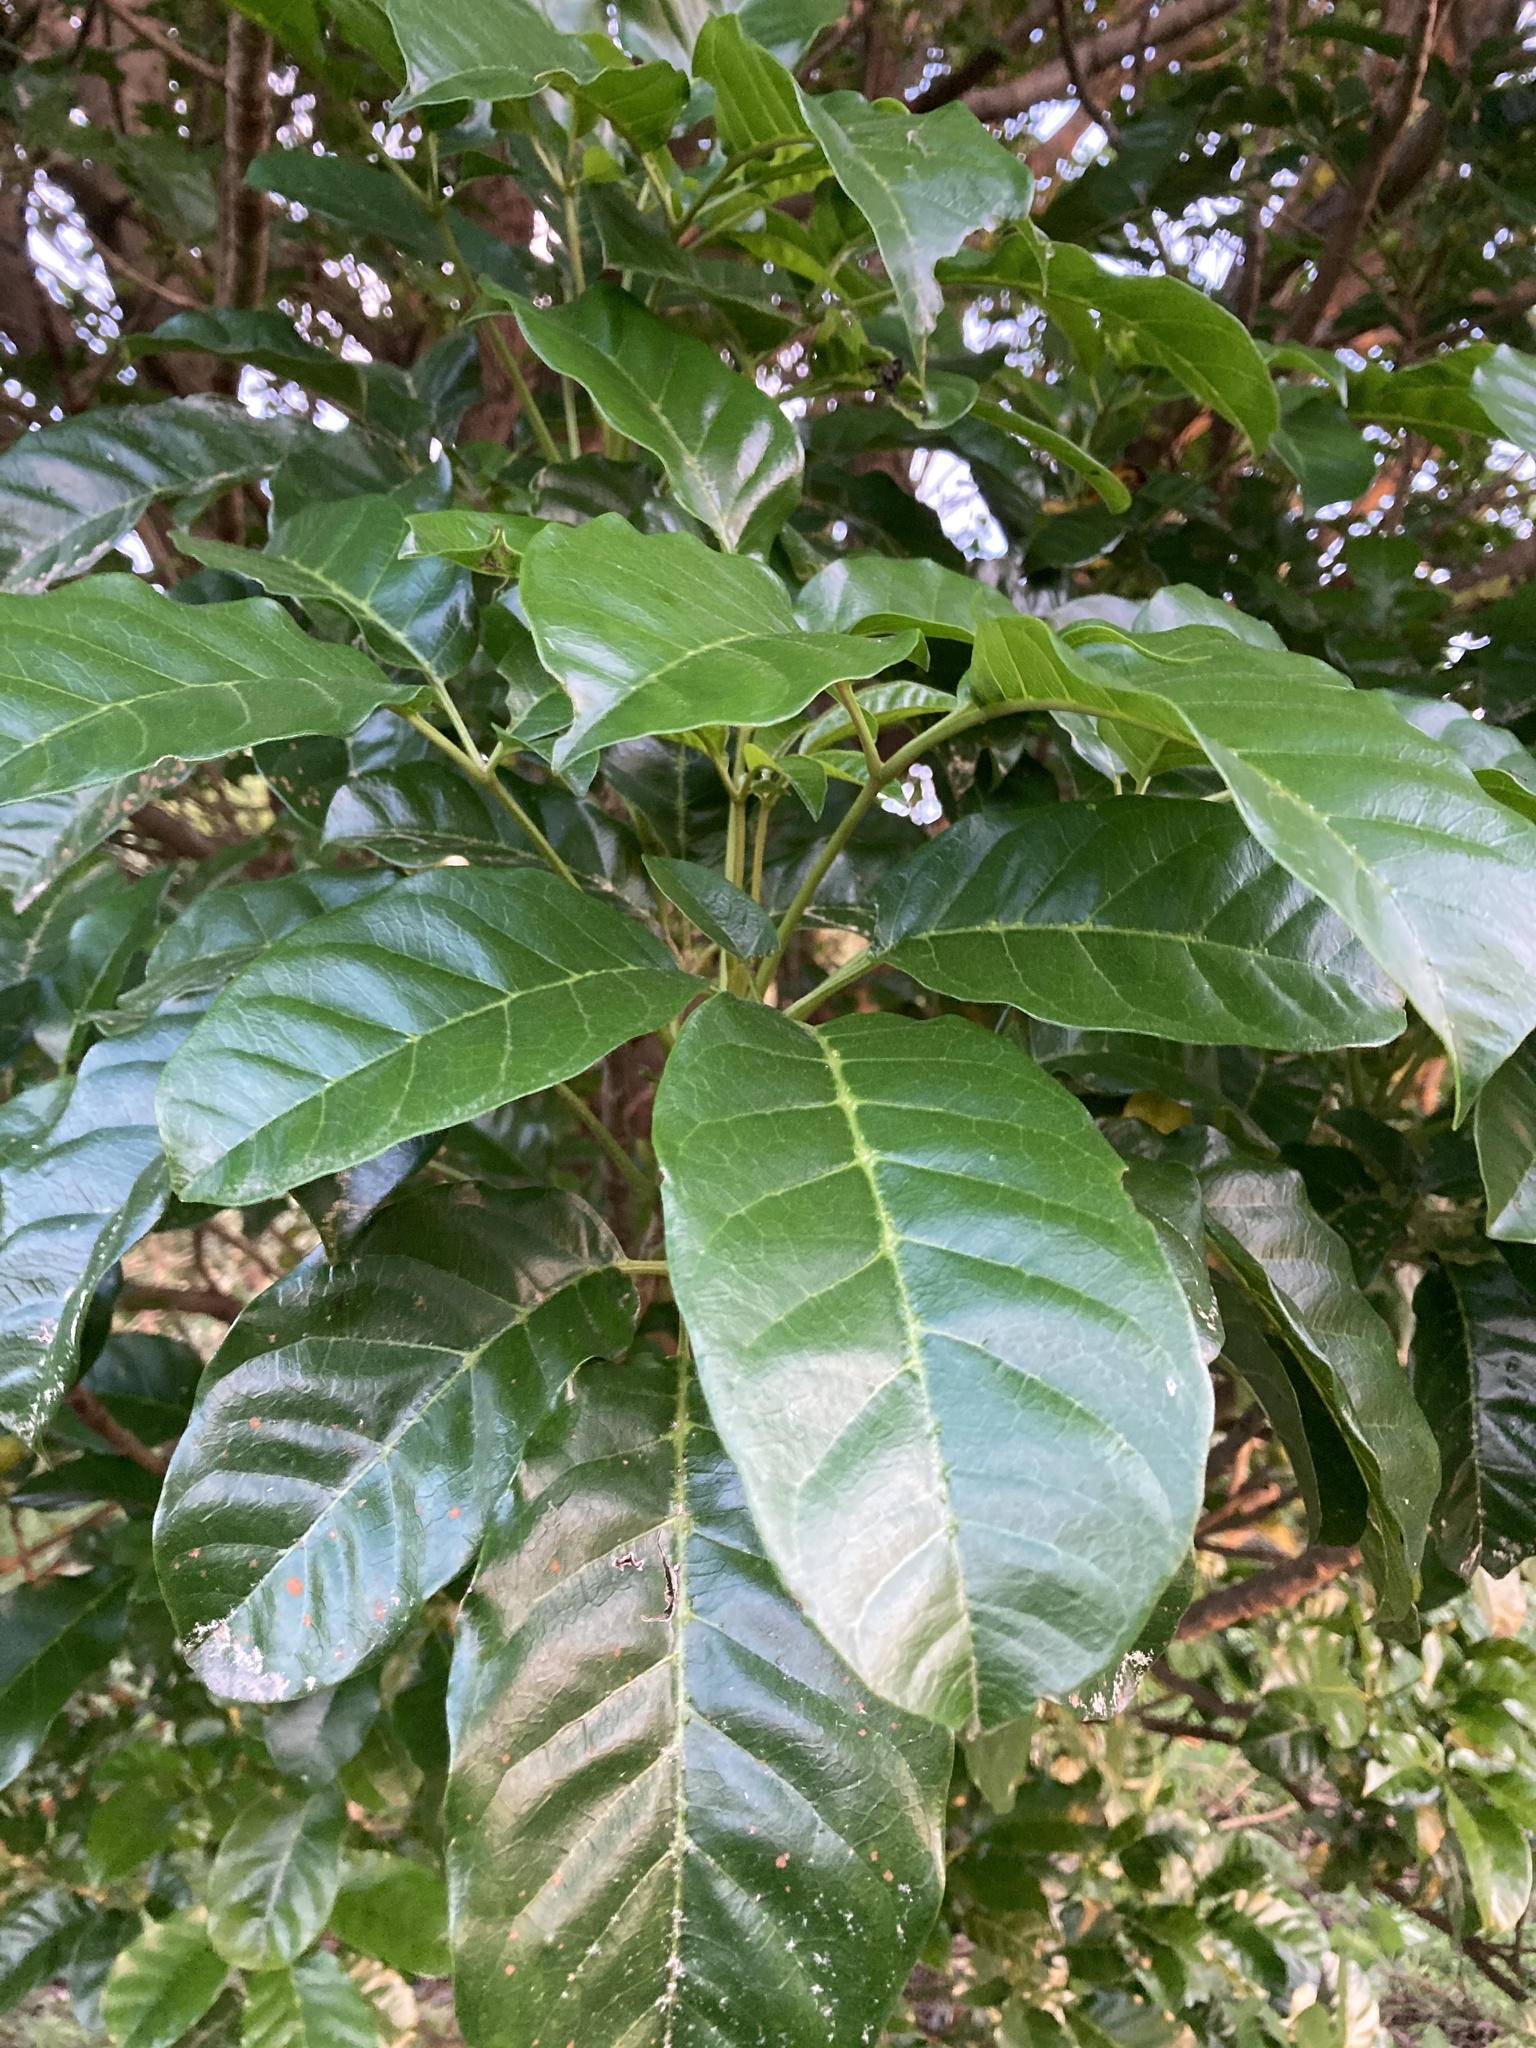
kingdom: Plantae
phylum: Tracheophyta
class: Magnoliopsida
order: Lamiales
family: Lamiaceae
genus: Vitex
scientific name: Vitex lucens
